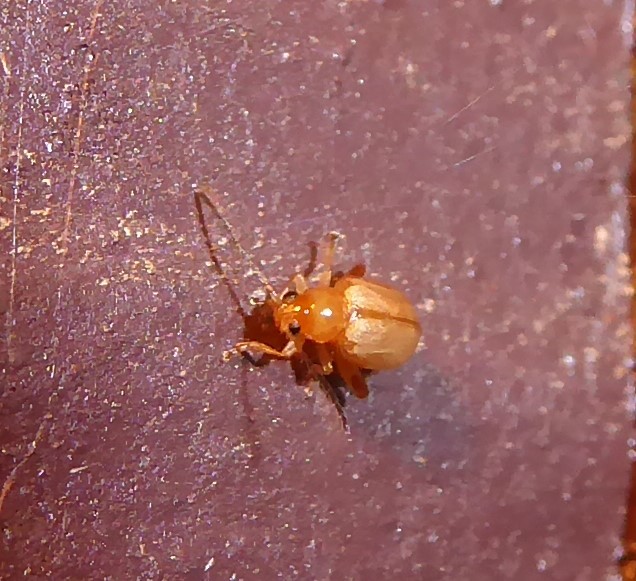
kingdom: Animalia
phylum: Arthropoda
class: Insecta
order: Coleoptera
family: Chrysomelidae
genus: Eucolaspis
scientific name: Eucolaspis
